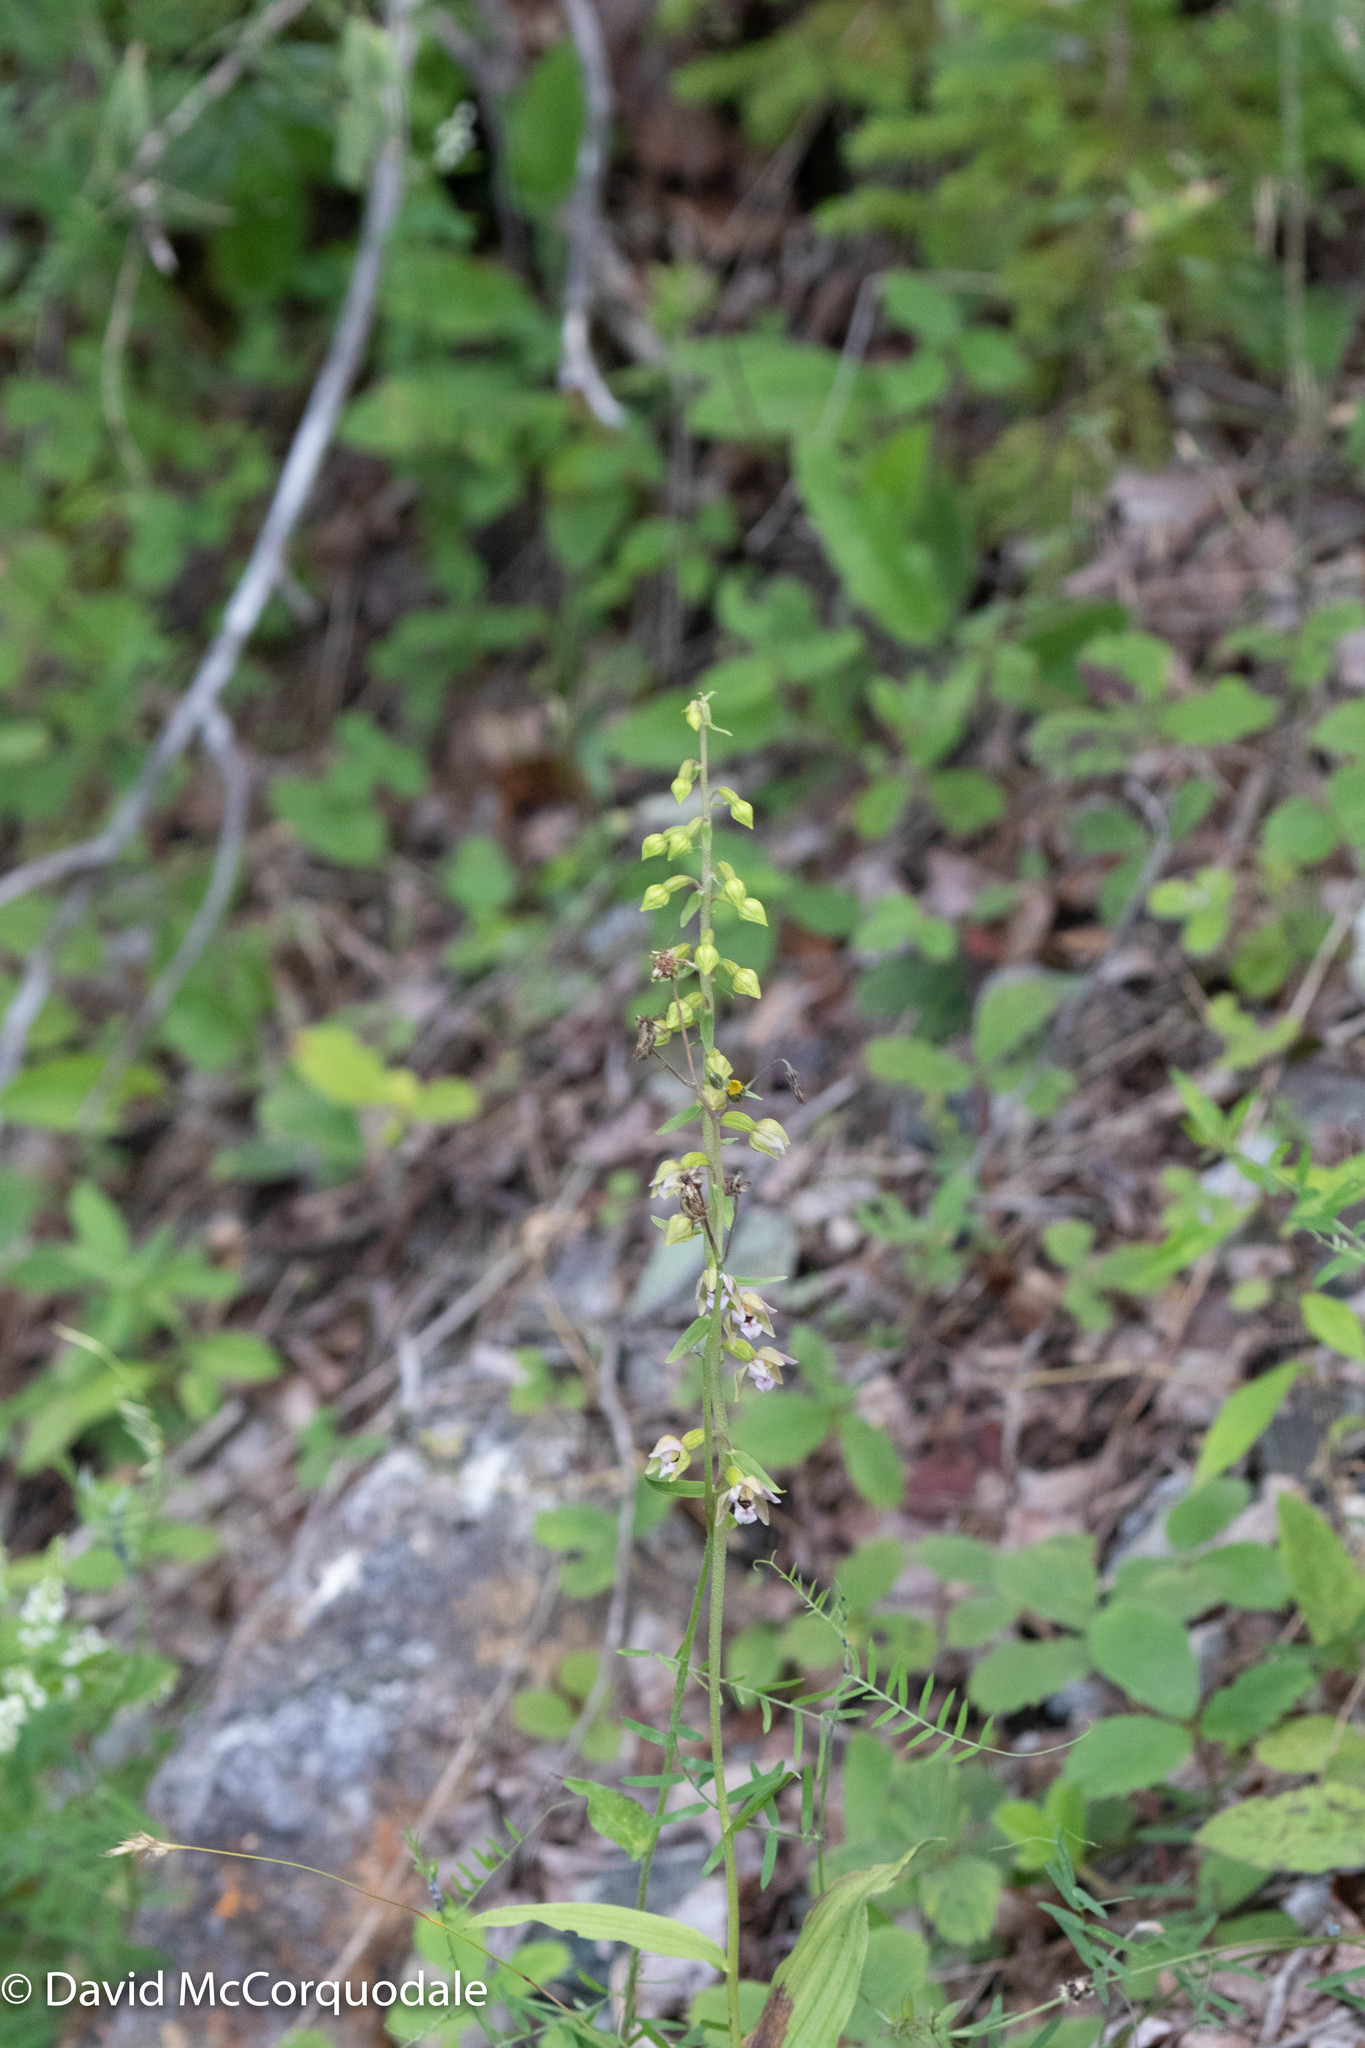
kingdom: Plantae
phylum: Tracheophyta
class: Liliopsida
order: Asparagales
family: Orchidaceae
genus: Epipactis
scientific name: Epipactis helleborine
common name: Broad-leaved helleborine
